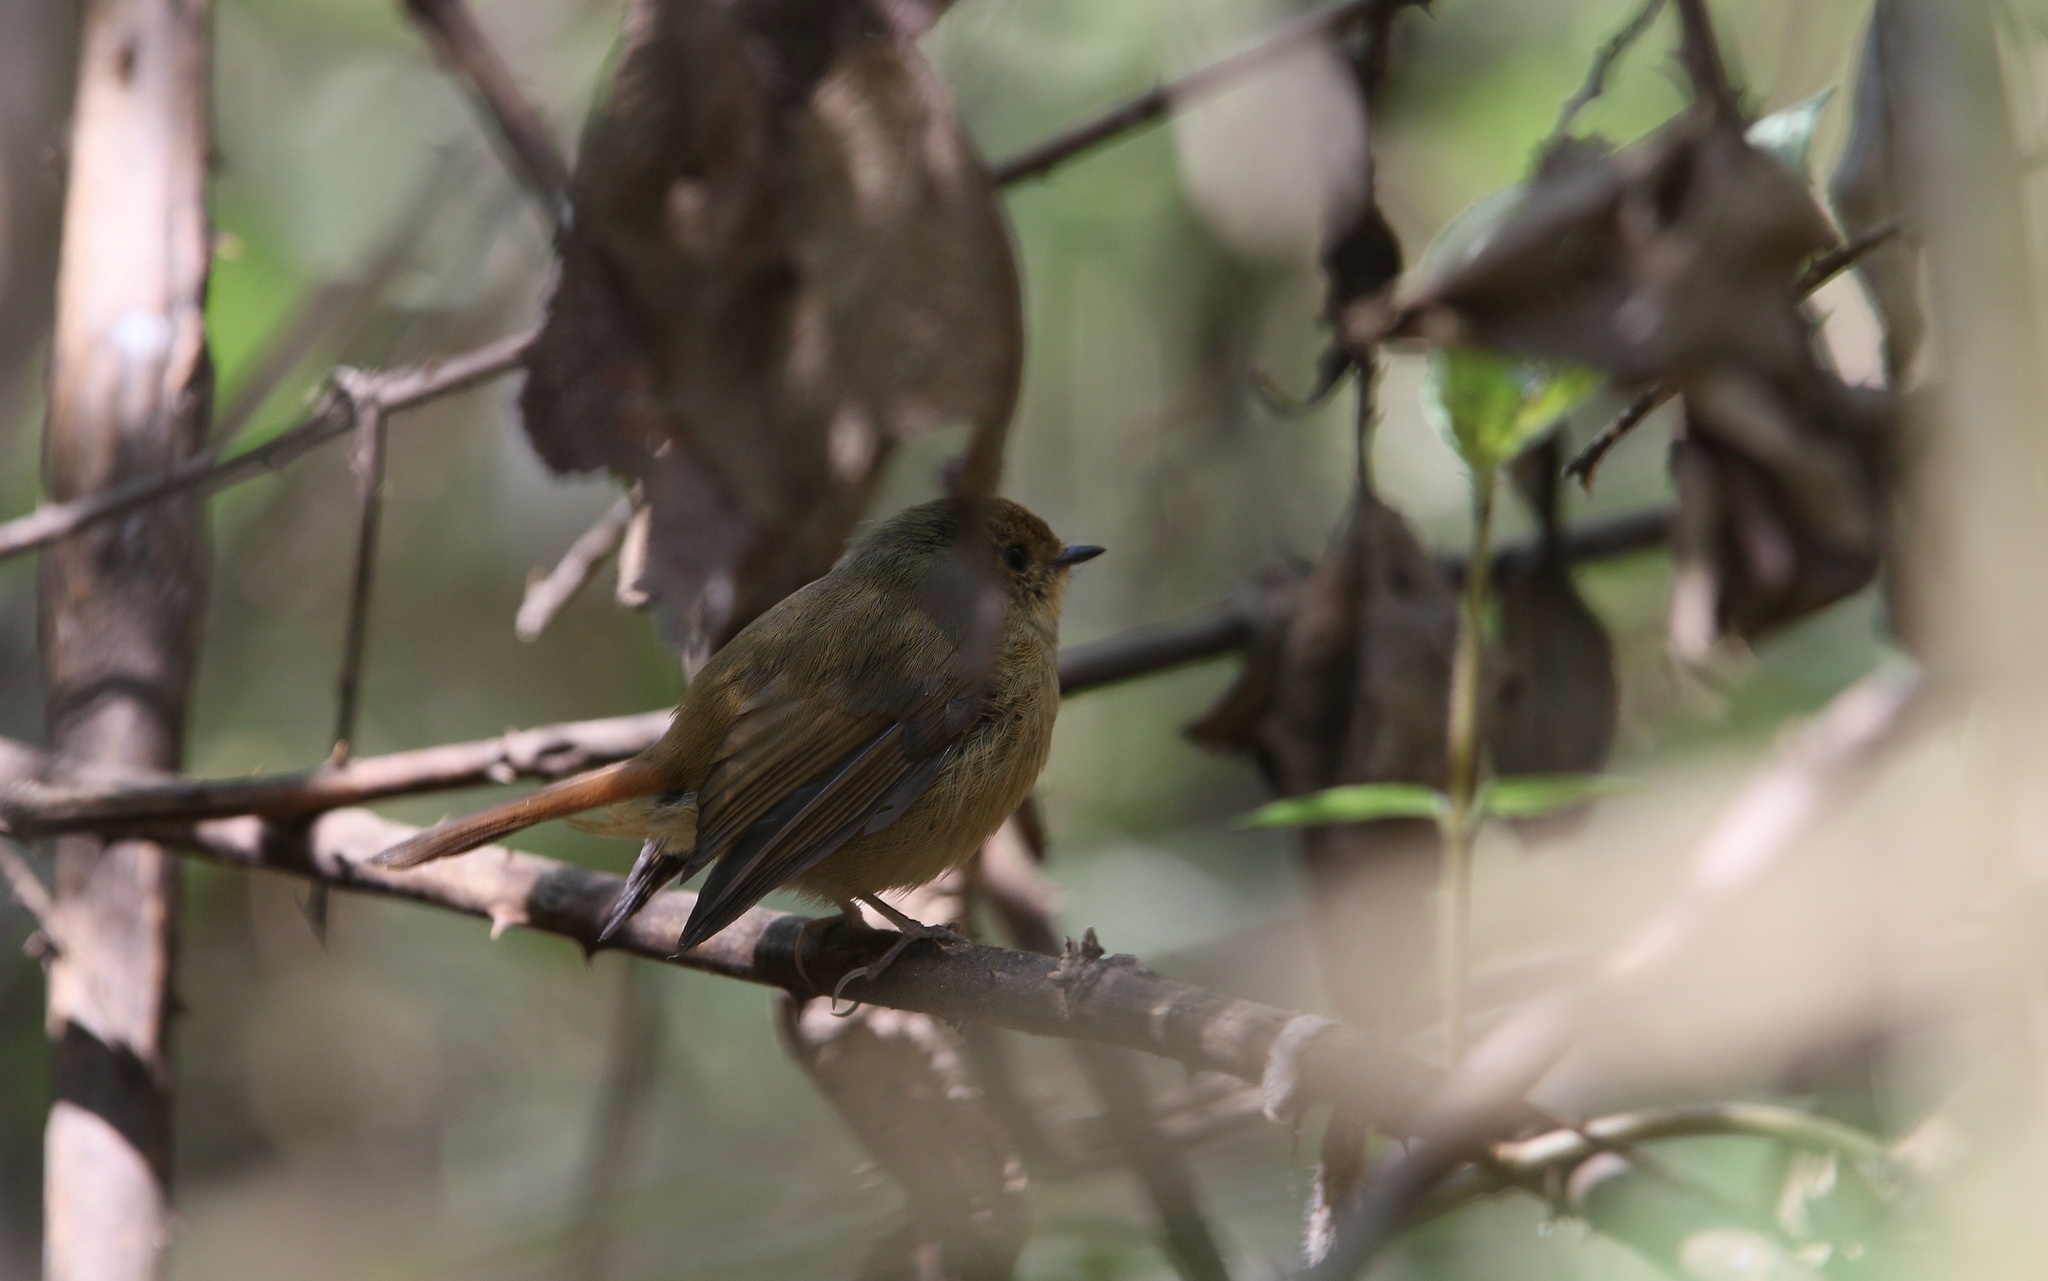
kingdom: Animalia
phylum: Chordata
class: Aves
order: Passeriformes
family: Muscicapidae
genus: Ficedula
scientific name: Ficedula tricolor
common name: Slaty-blue flycatcher
